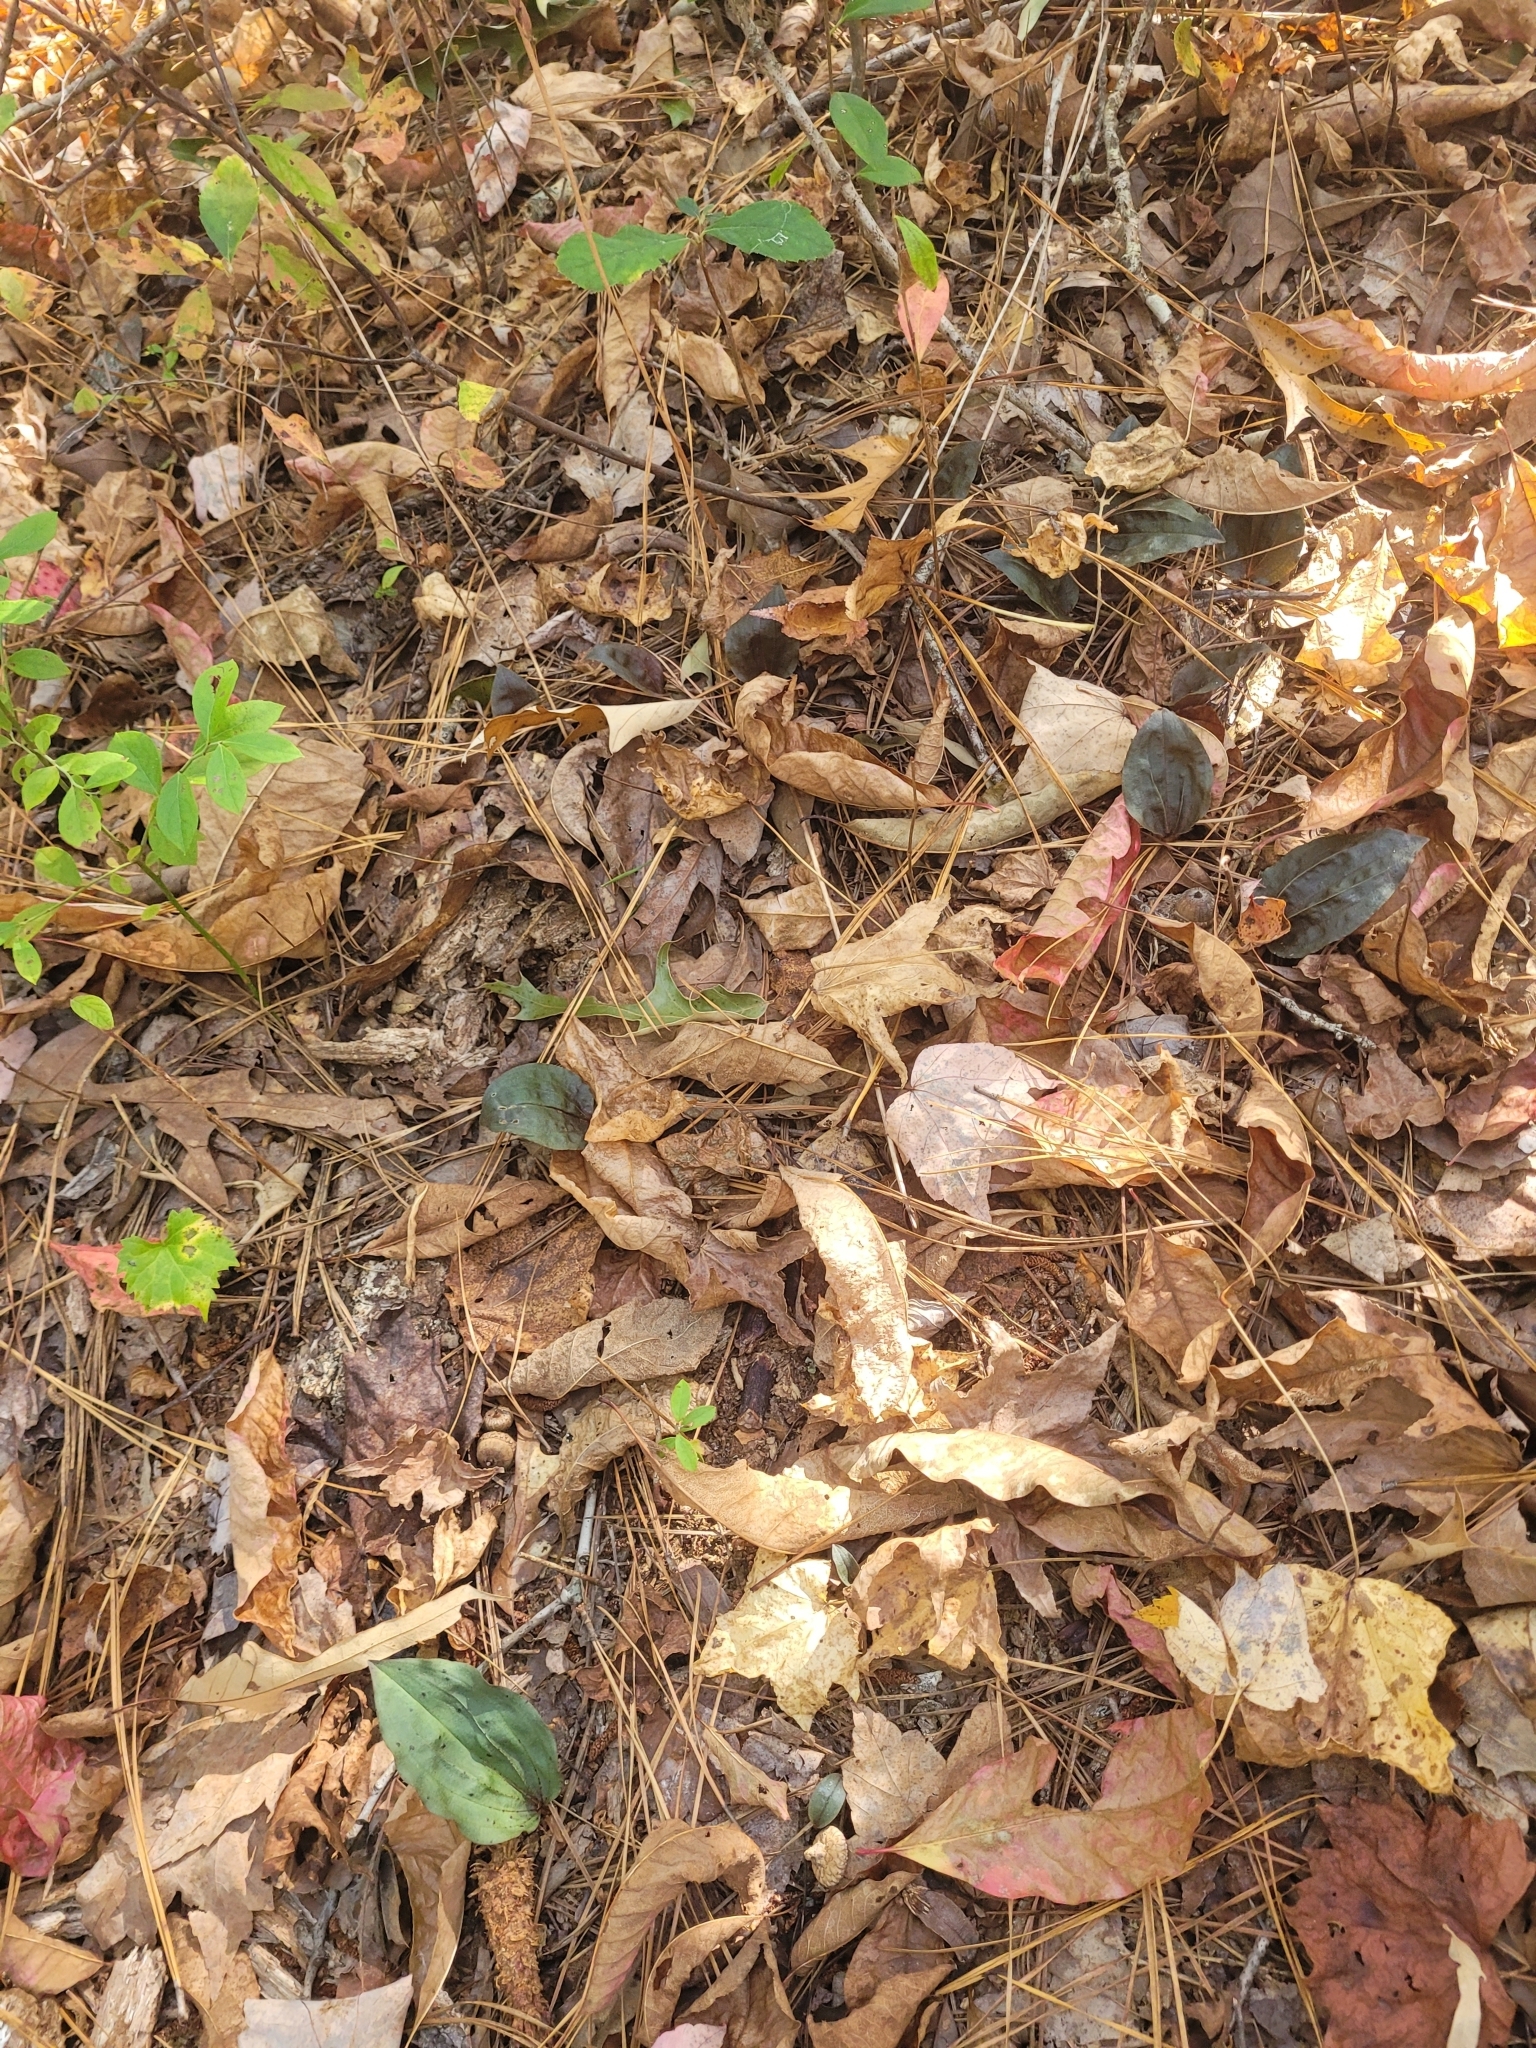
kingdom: Plantae
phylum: Tracheophyta
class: Liliopsida
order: Asparagales
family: Orchidaceae
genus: Tipularia
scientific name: Tipularia discolor
